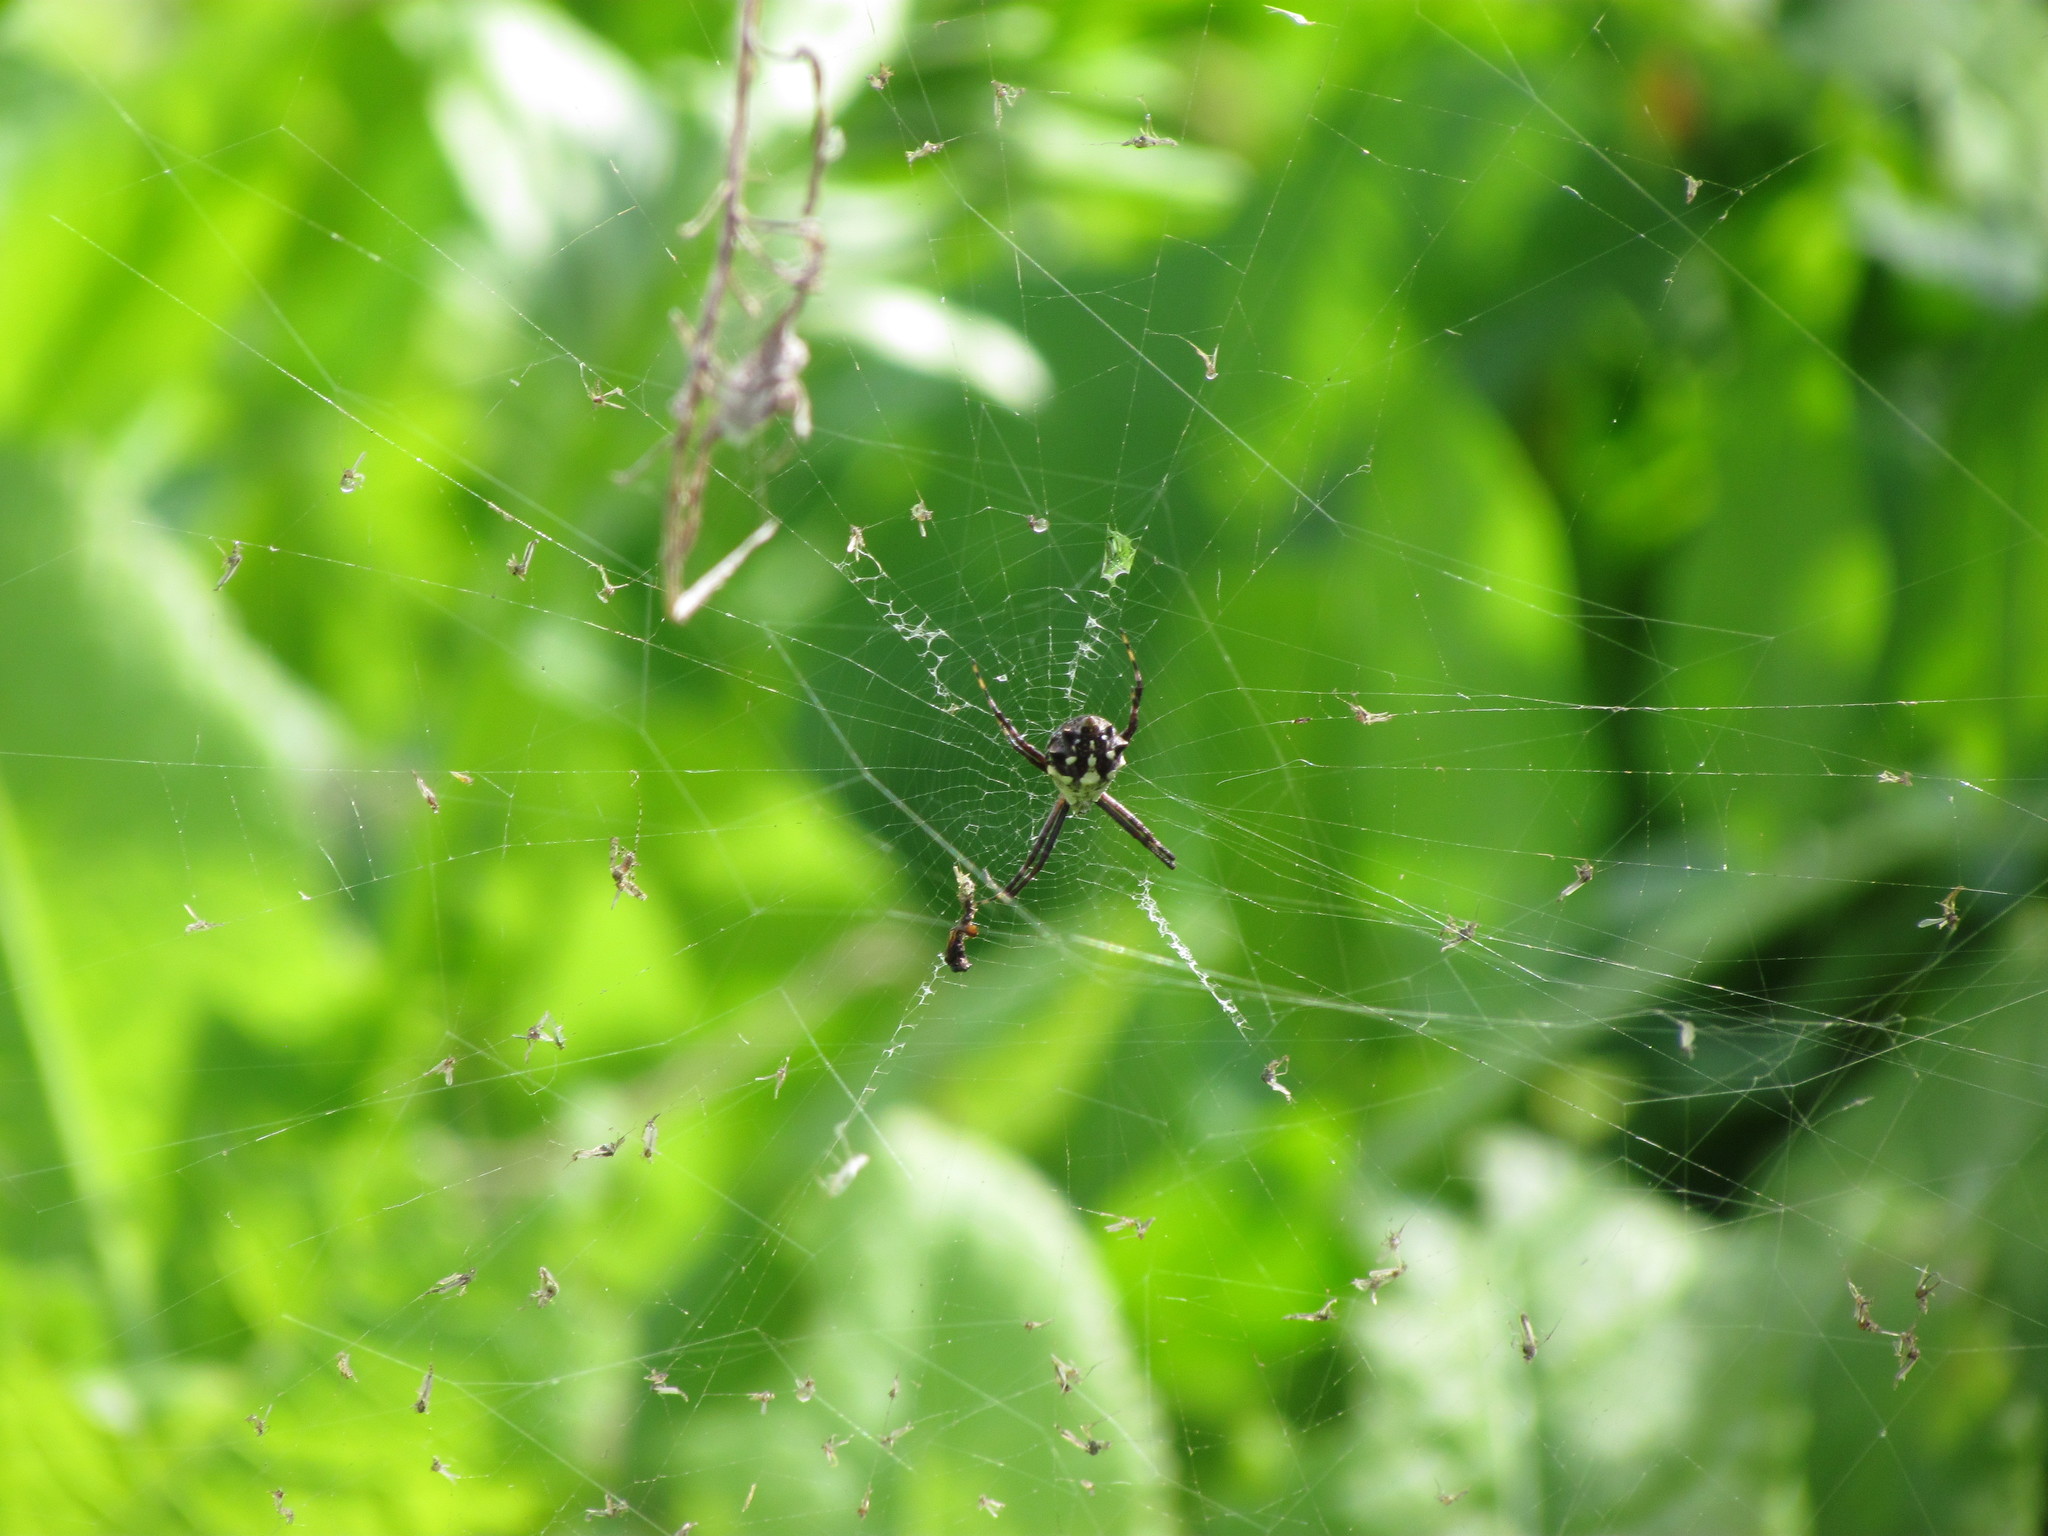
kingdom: Animalia
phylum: Arthropoda
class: Arachnida
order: Araneae
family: Araneidae
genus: Argiope
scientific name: Argiope argentata
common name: Orb weavers
